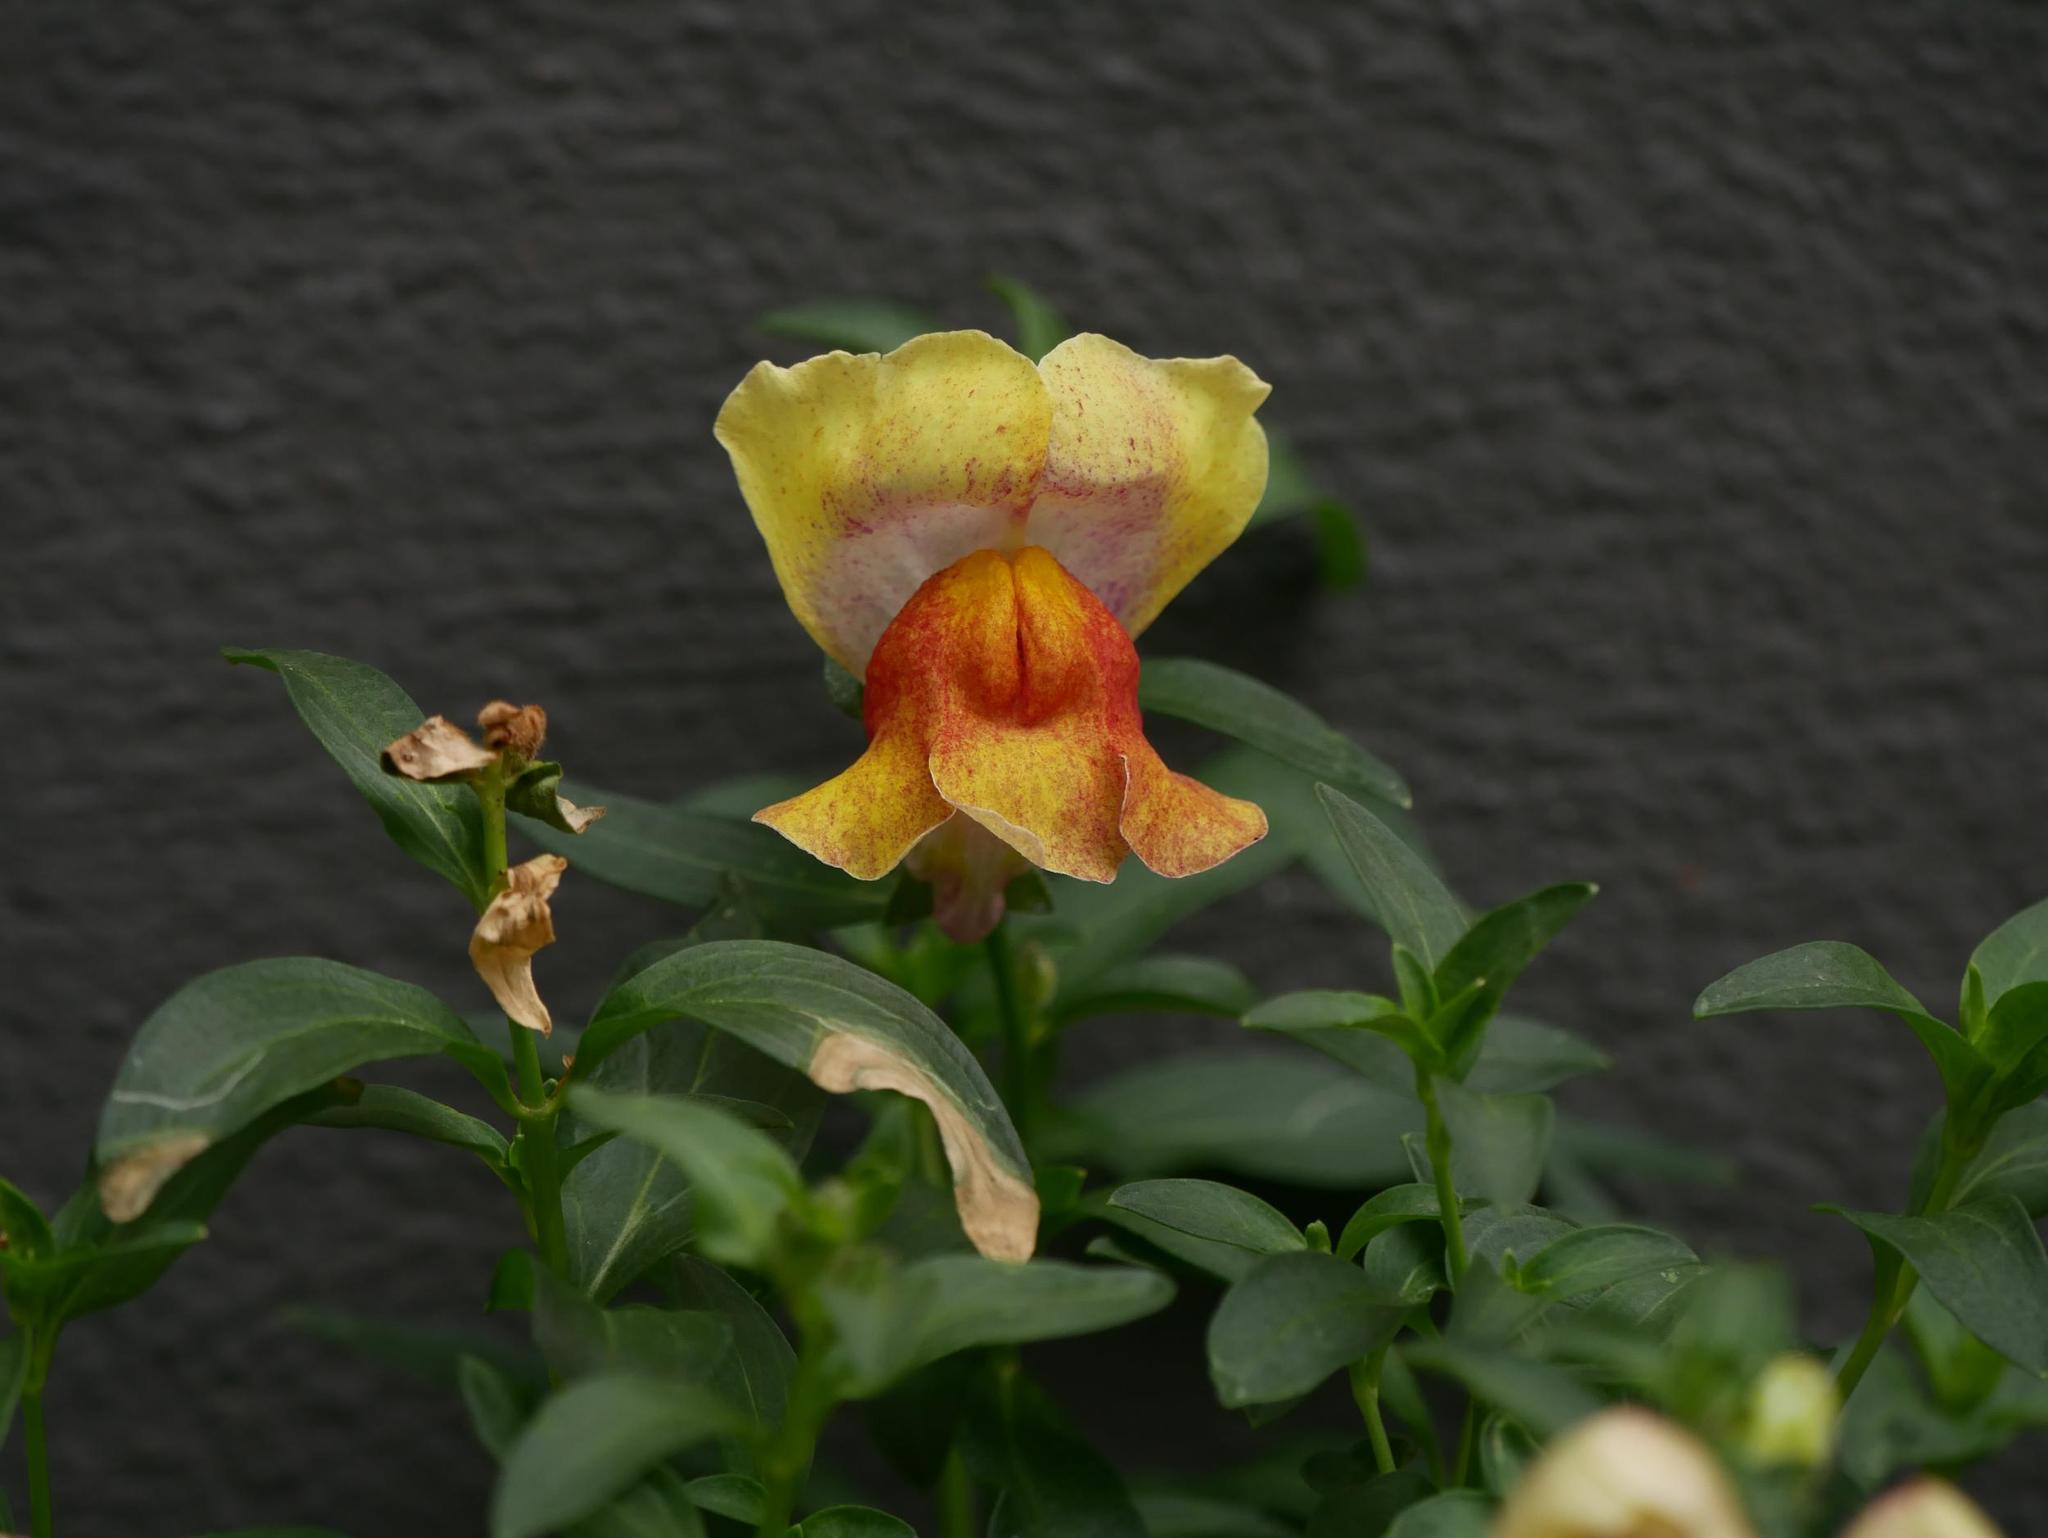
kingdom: Plantae
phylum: Tracheophyta
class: Magnoliopsida
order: Lamiales
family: Plantaginaceae
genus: Antirrhinum
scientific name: Antirrhinum majus
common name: Snapdragon
